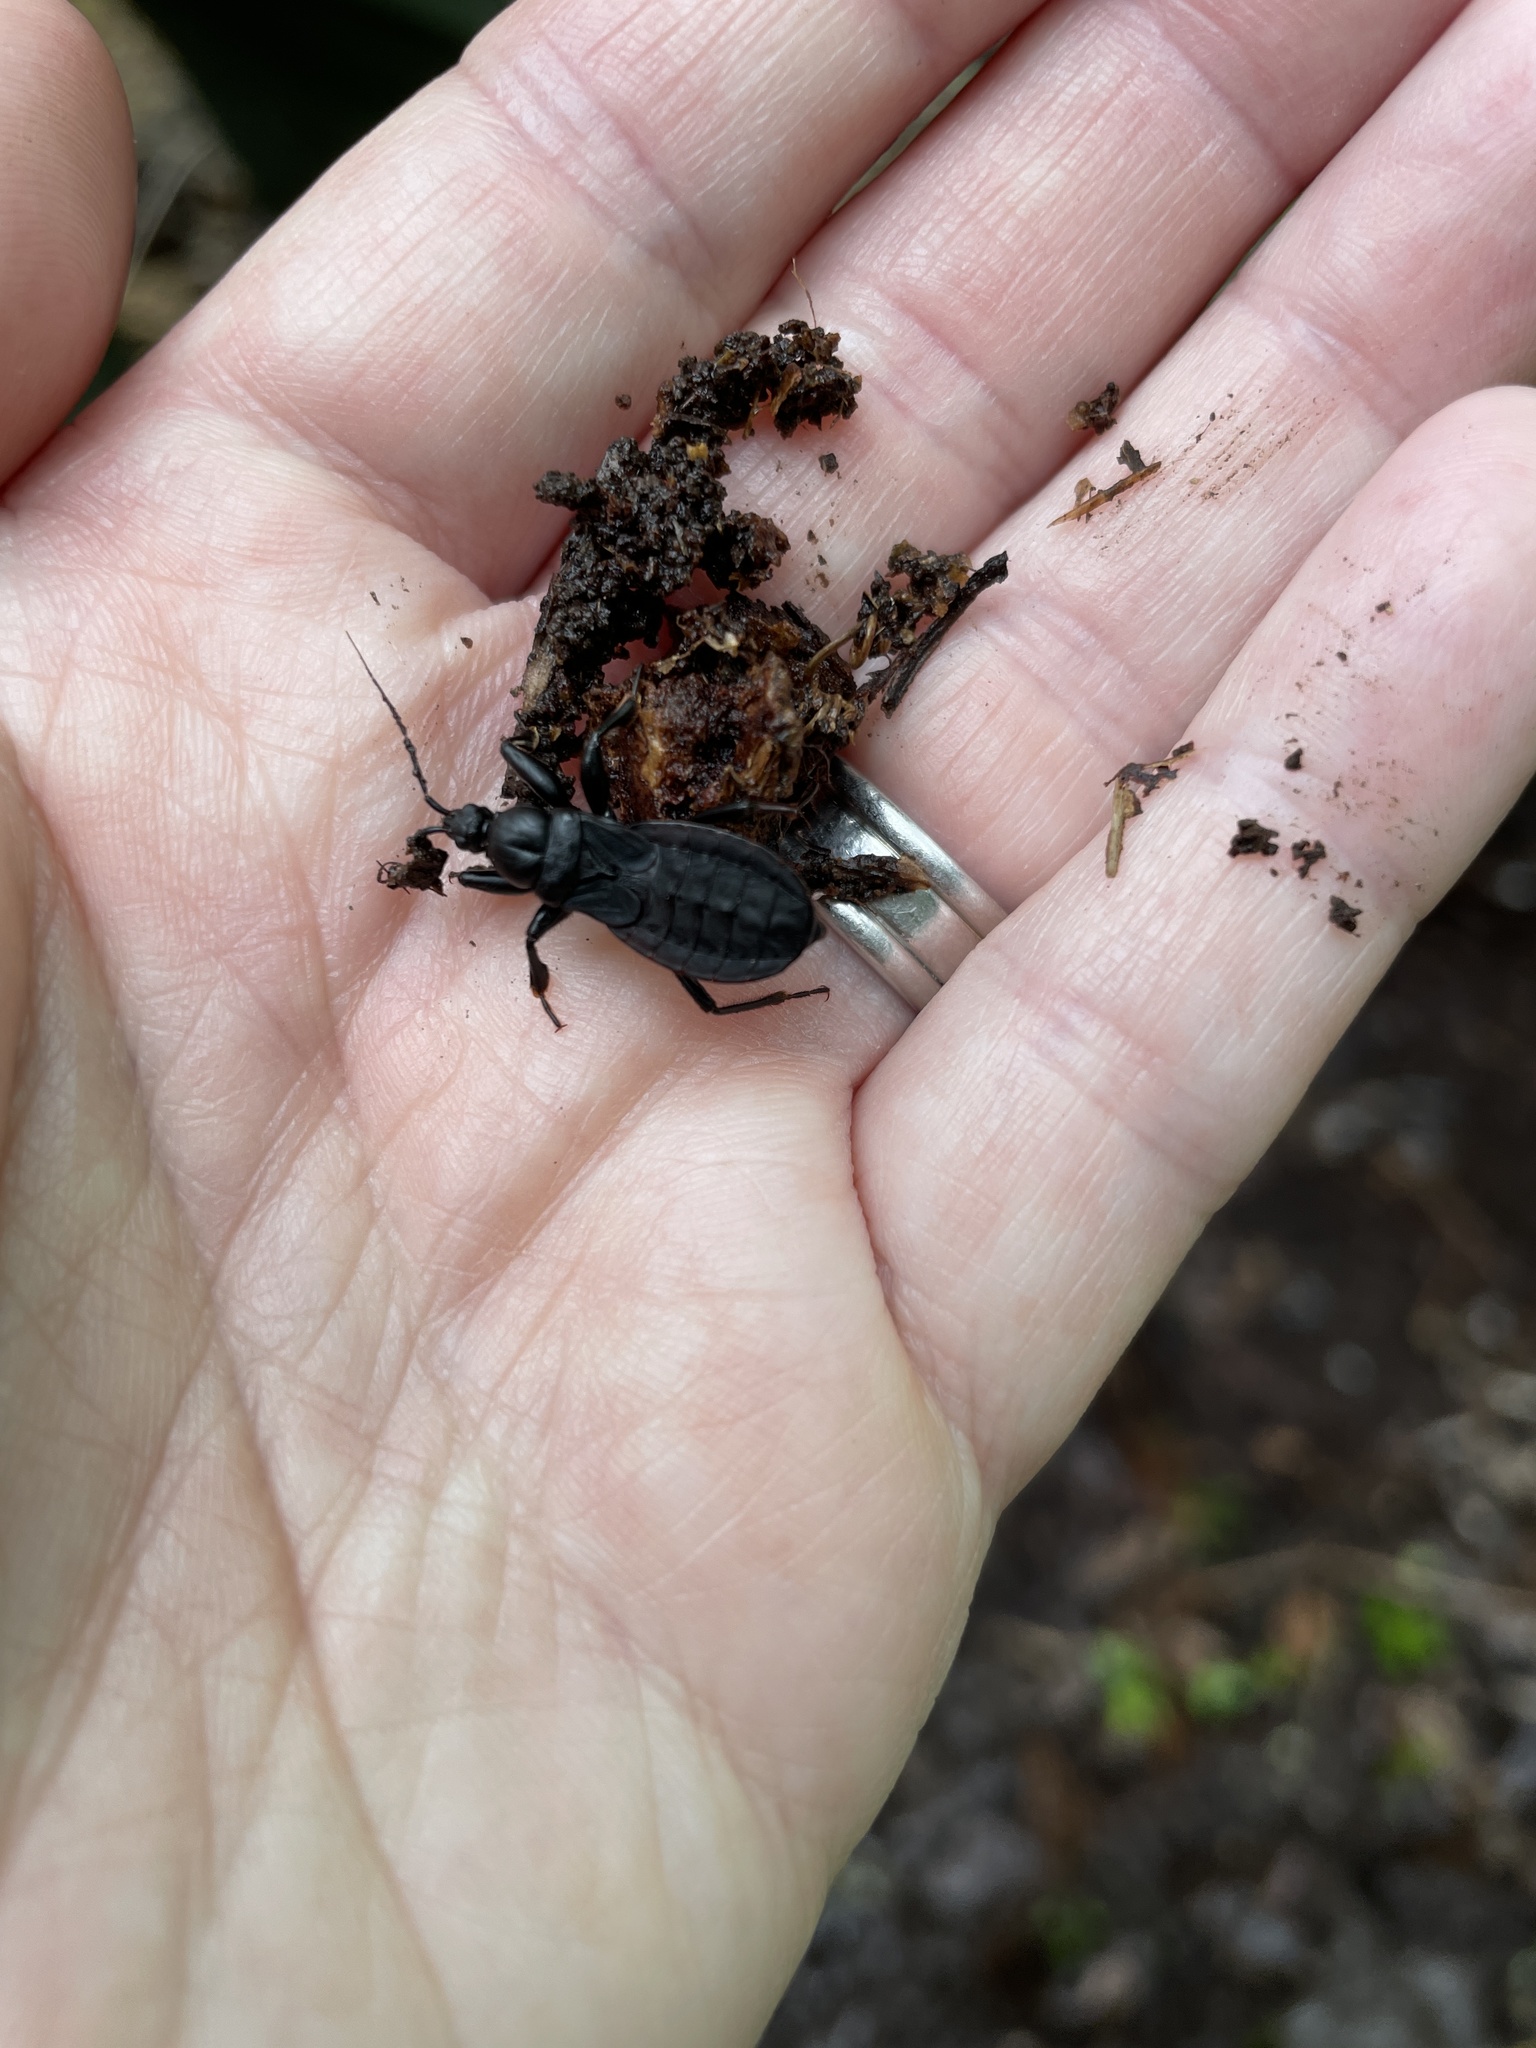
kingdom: Animalia
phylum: Arthropoda
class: Insecta
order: Hemiptera
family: Reduviidae
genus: Melanolestes
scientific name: Melanolestes picipes
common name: Assassin bug
